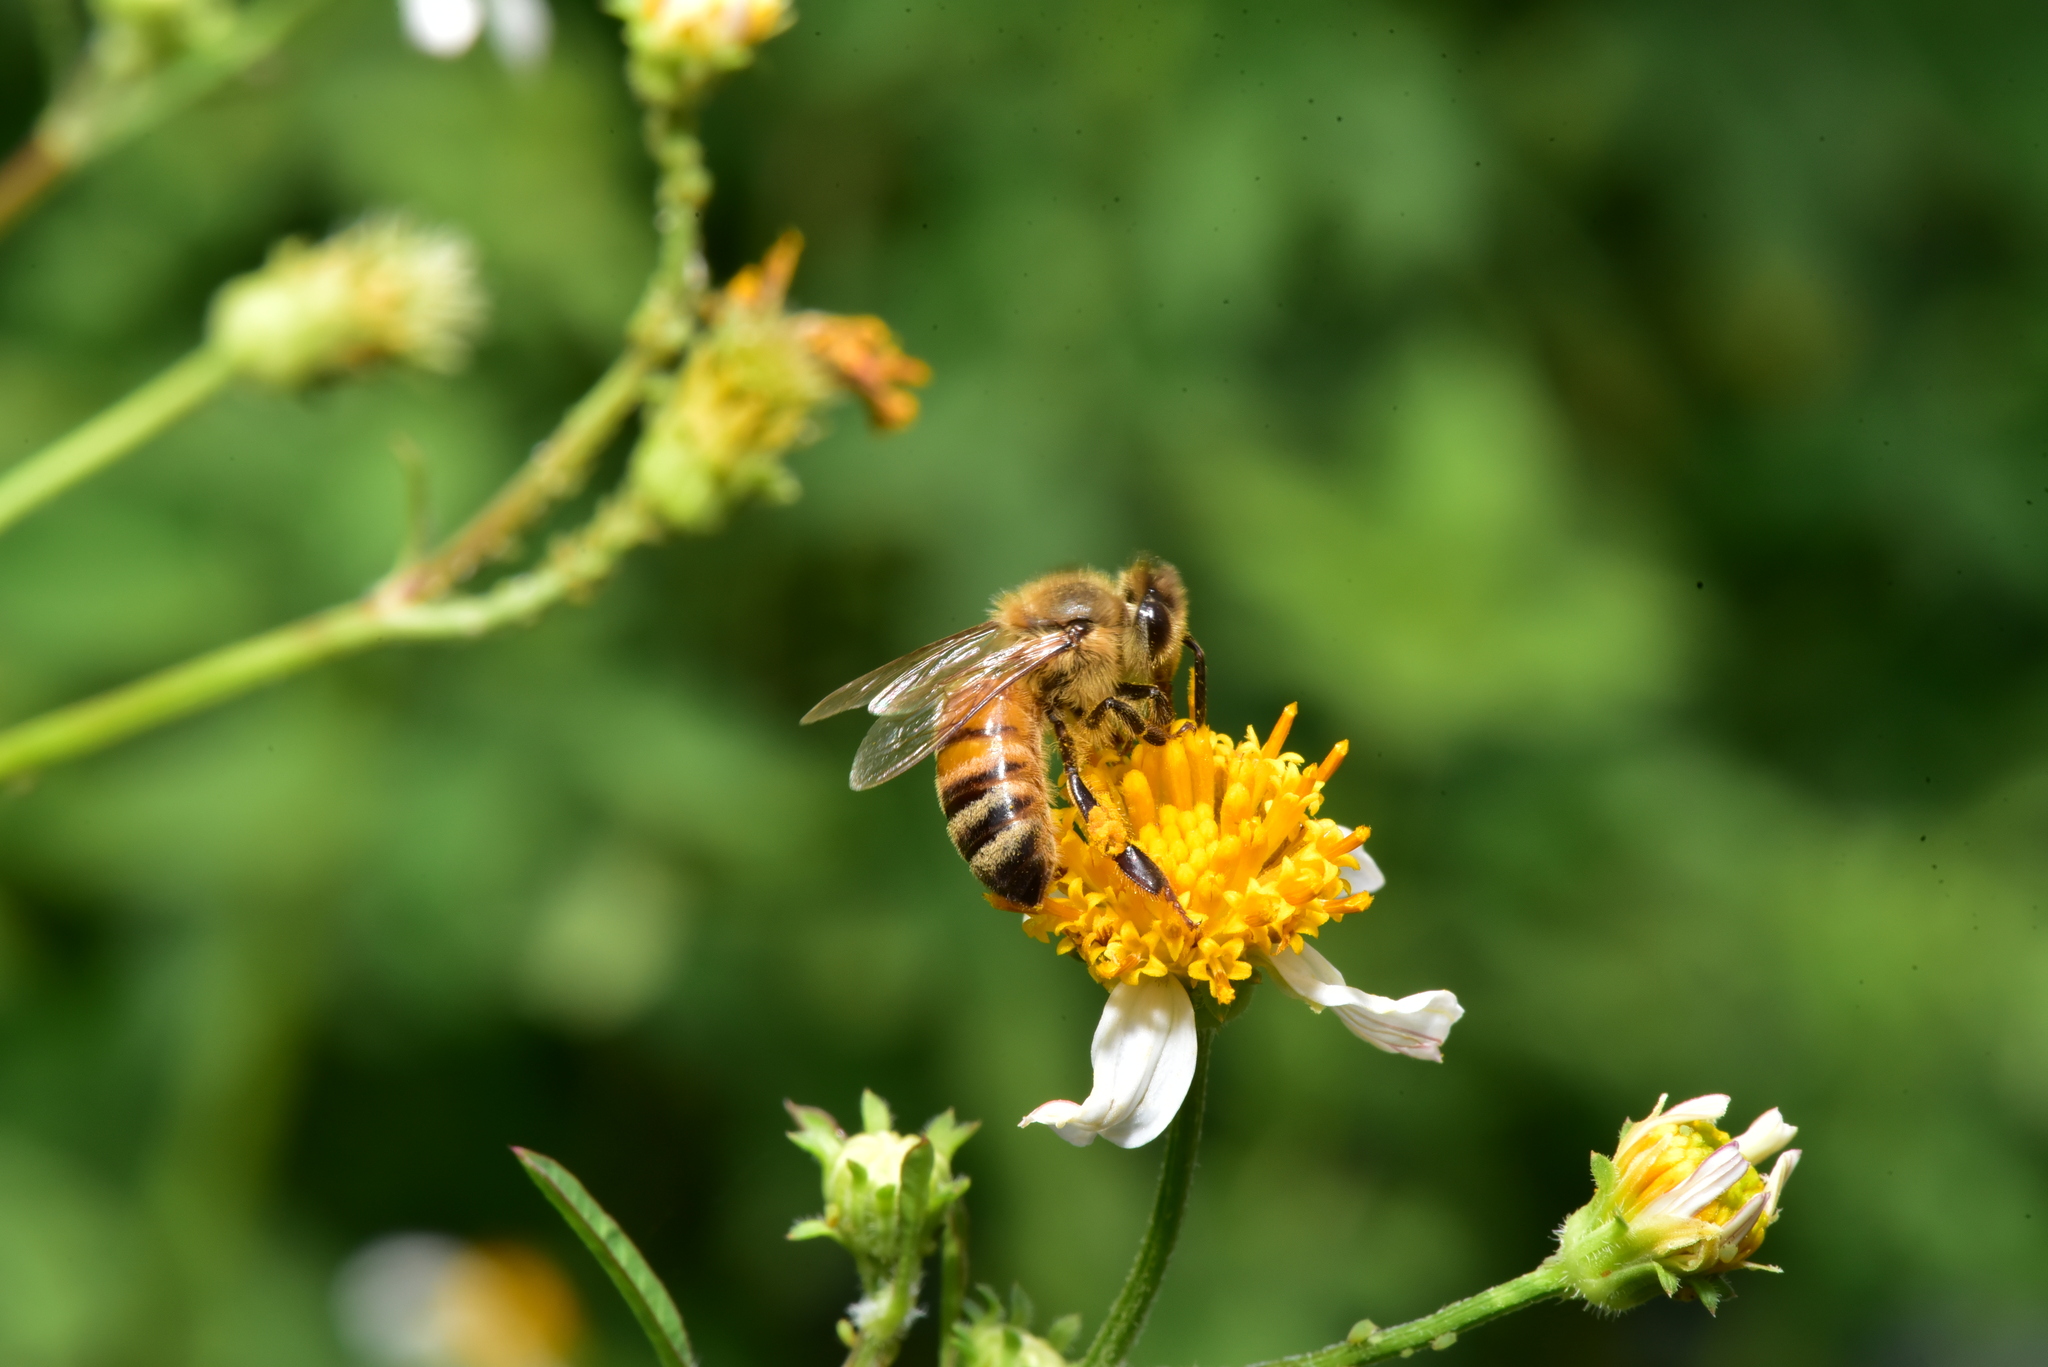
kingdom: Animalia
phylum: Arthropoda
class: Insecta
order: Hymenoptera
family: Apidae
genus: Apis
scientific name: Apis mellifera
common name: Honey bee
